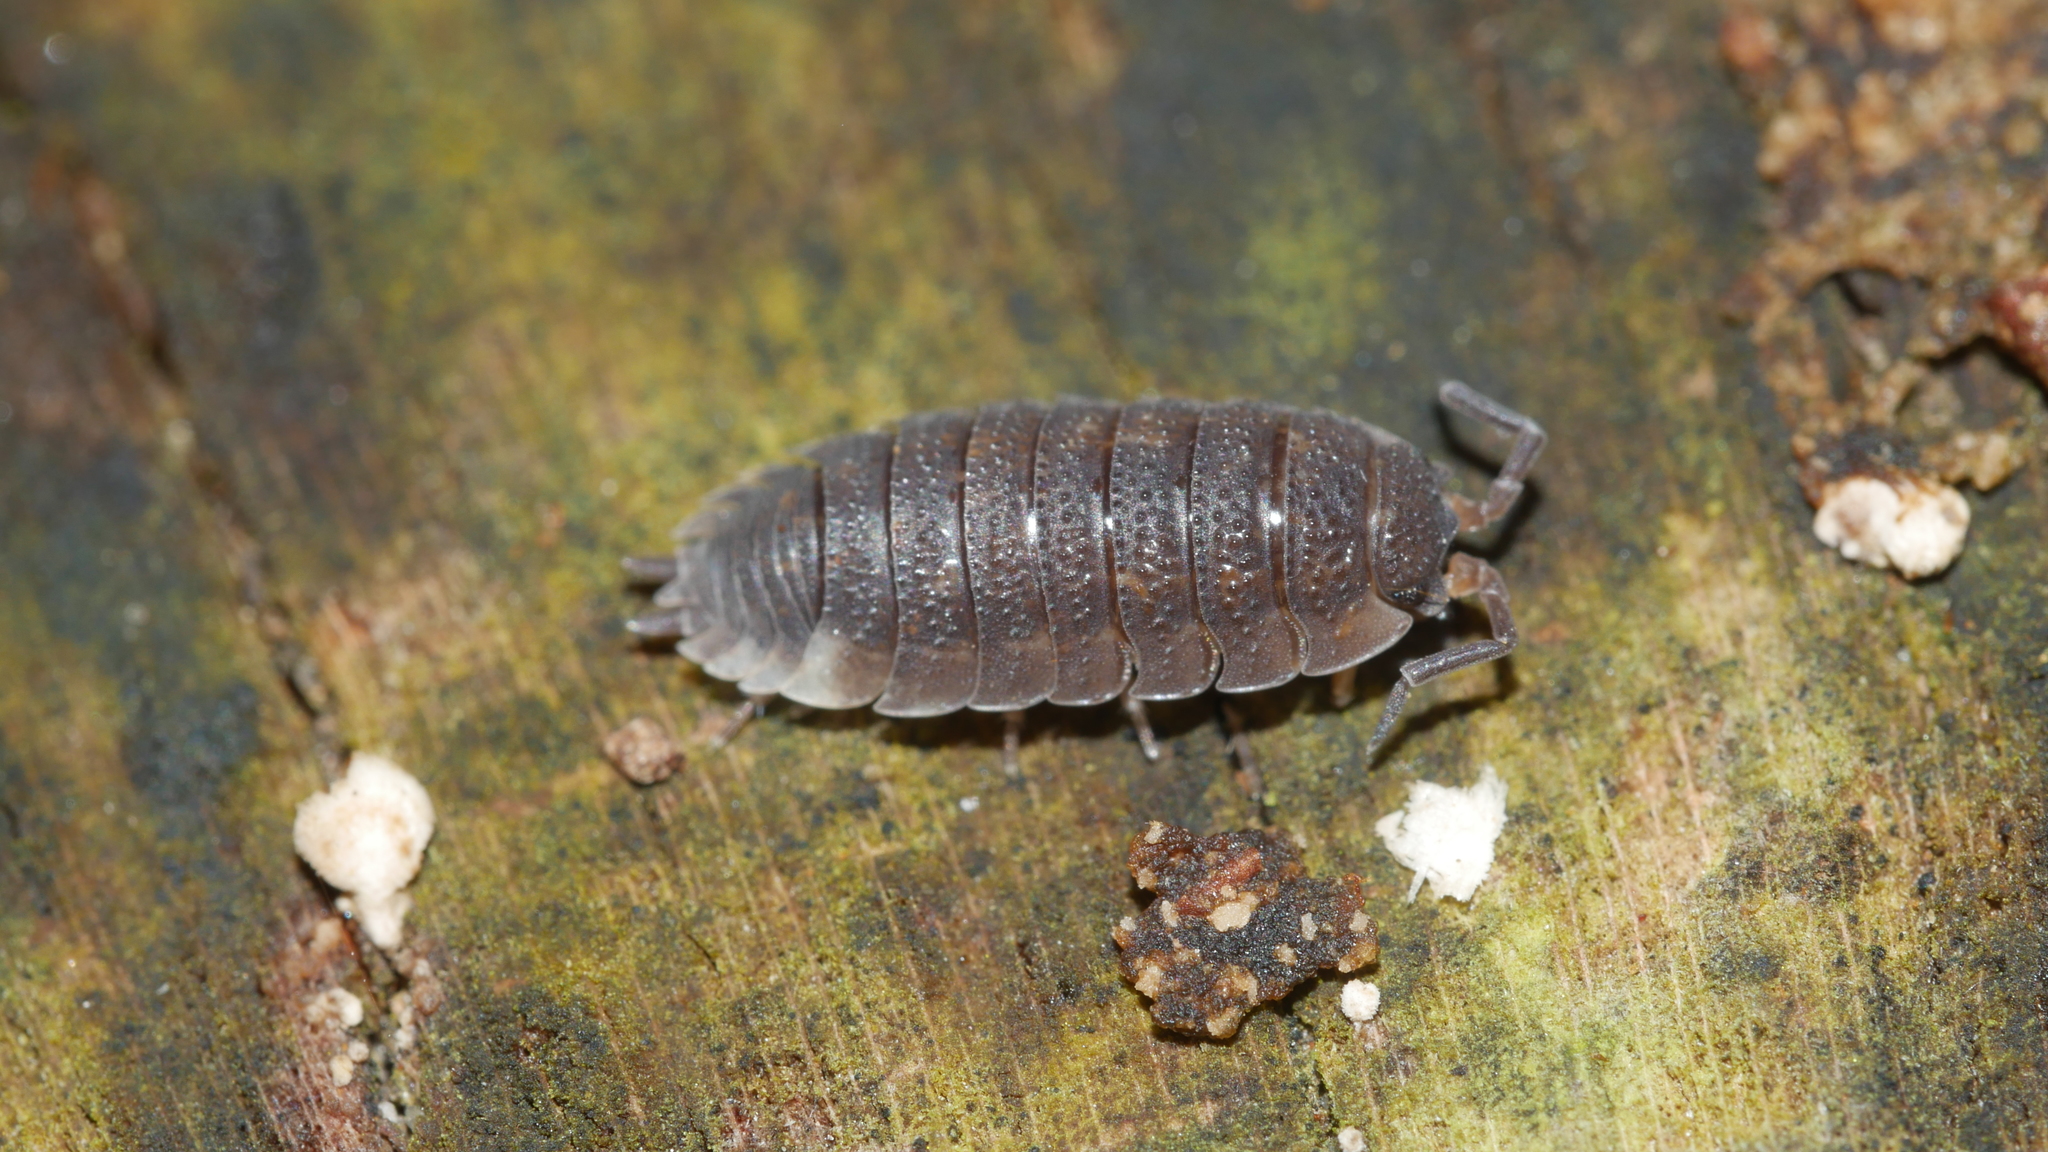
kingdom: Animalia
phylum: Arthropoda
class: Malacostraca
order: Isopoda
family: Porcellionidae
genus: Porcellio
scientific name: Porcellio scaber
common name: Common rough woodlouse
